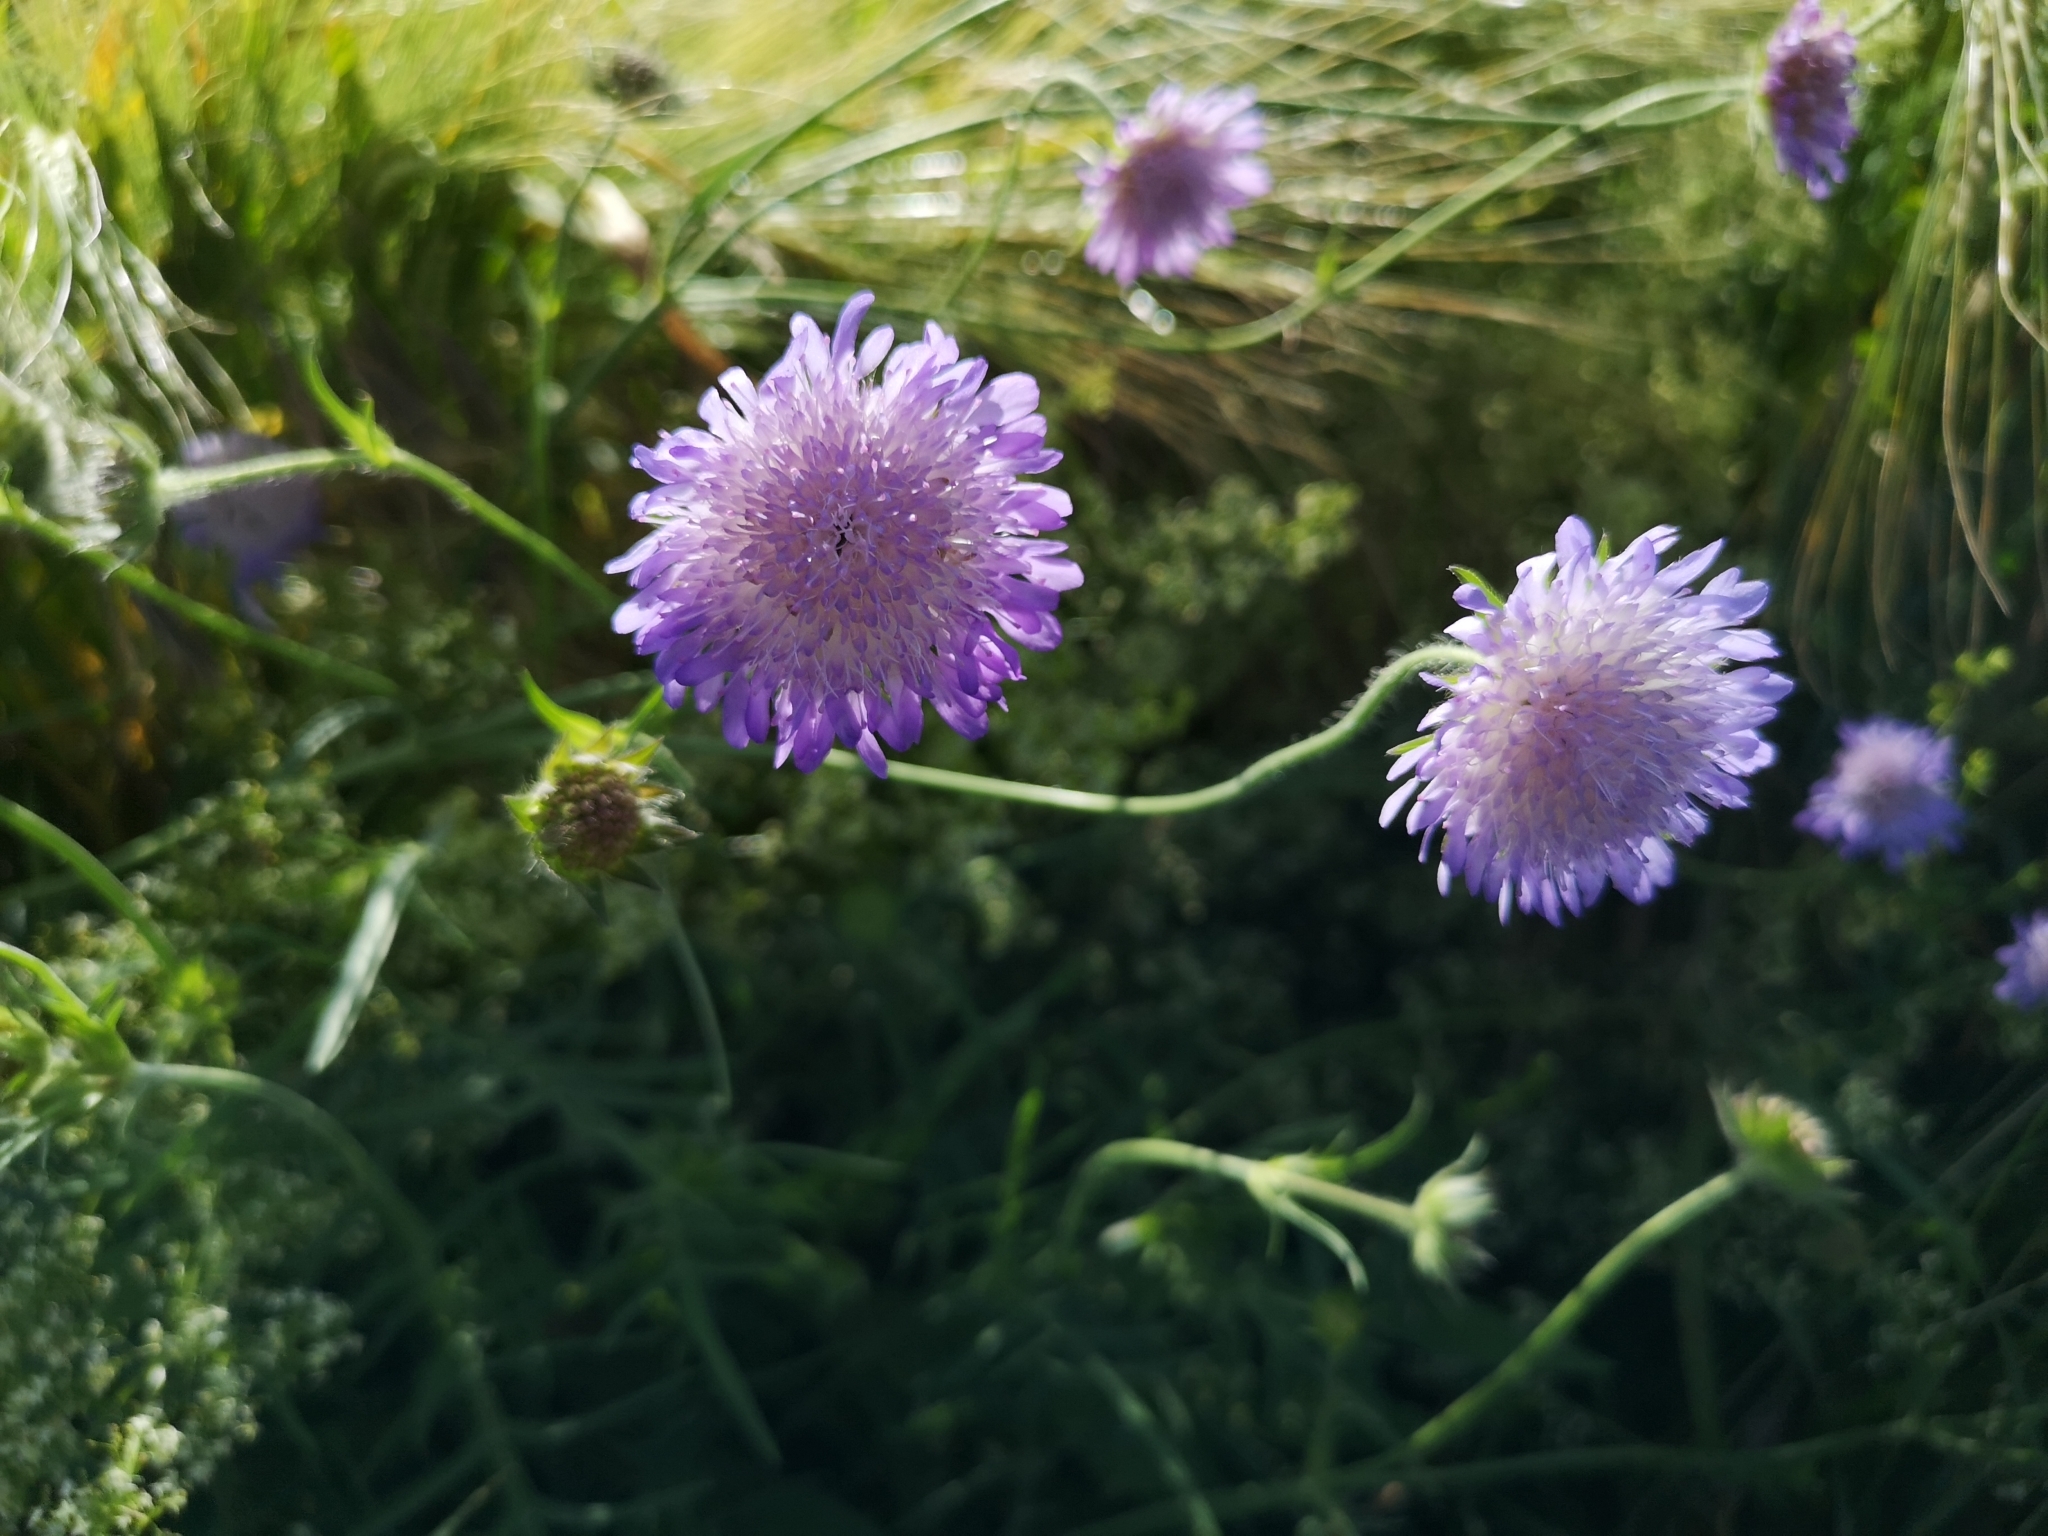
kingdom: Plantae
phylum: Tracheophyta
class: Magnoliopsida
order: Dipsacales
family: Caprifoliaceae
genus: Knautia
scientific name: Knautia arvensis
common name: Field scabiosa
